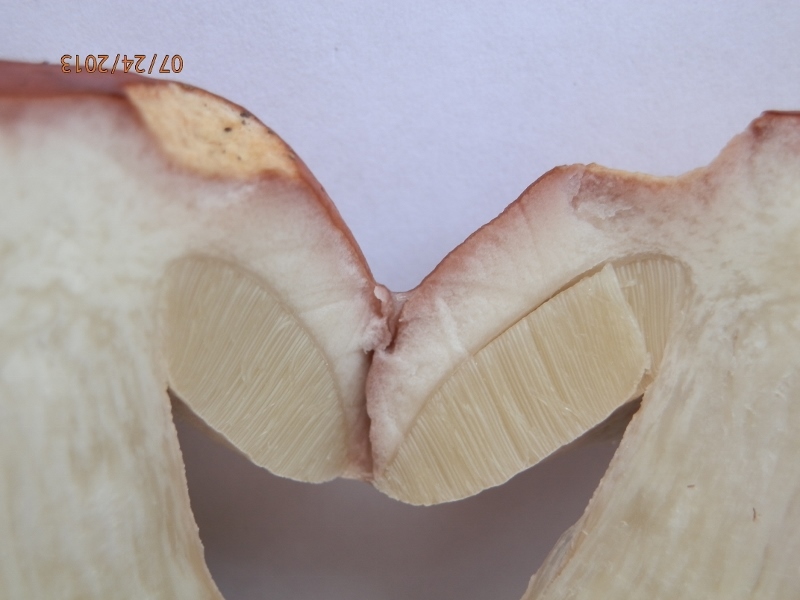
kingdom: Fungi
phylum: Basidiomycota
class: Agaricomycetes
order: Boletales
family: Boletaceae
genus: Boletus
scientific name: Boletus edulis
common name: Cep
